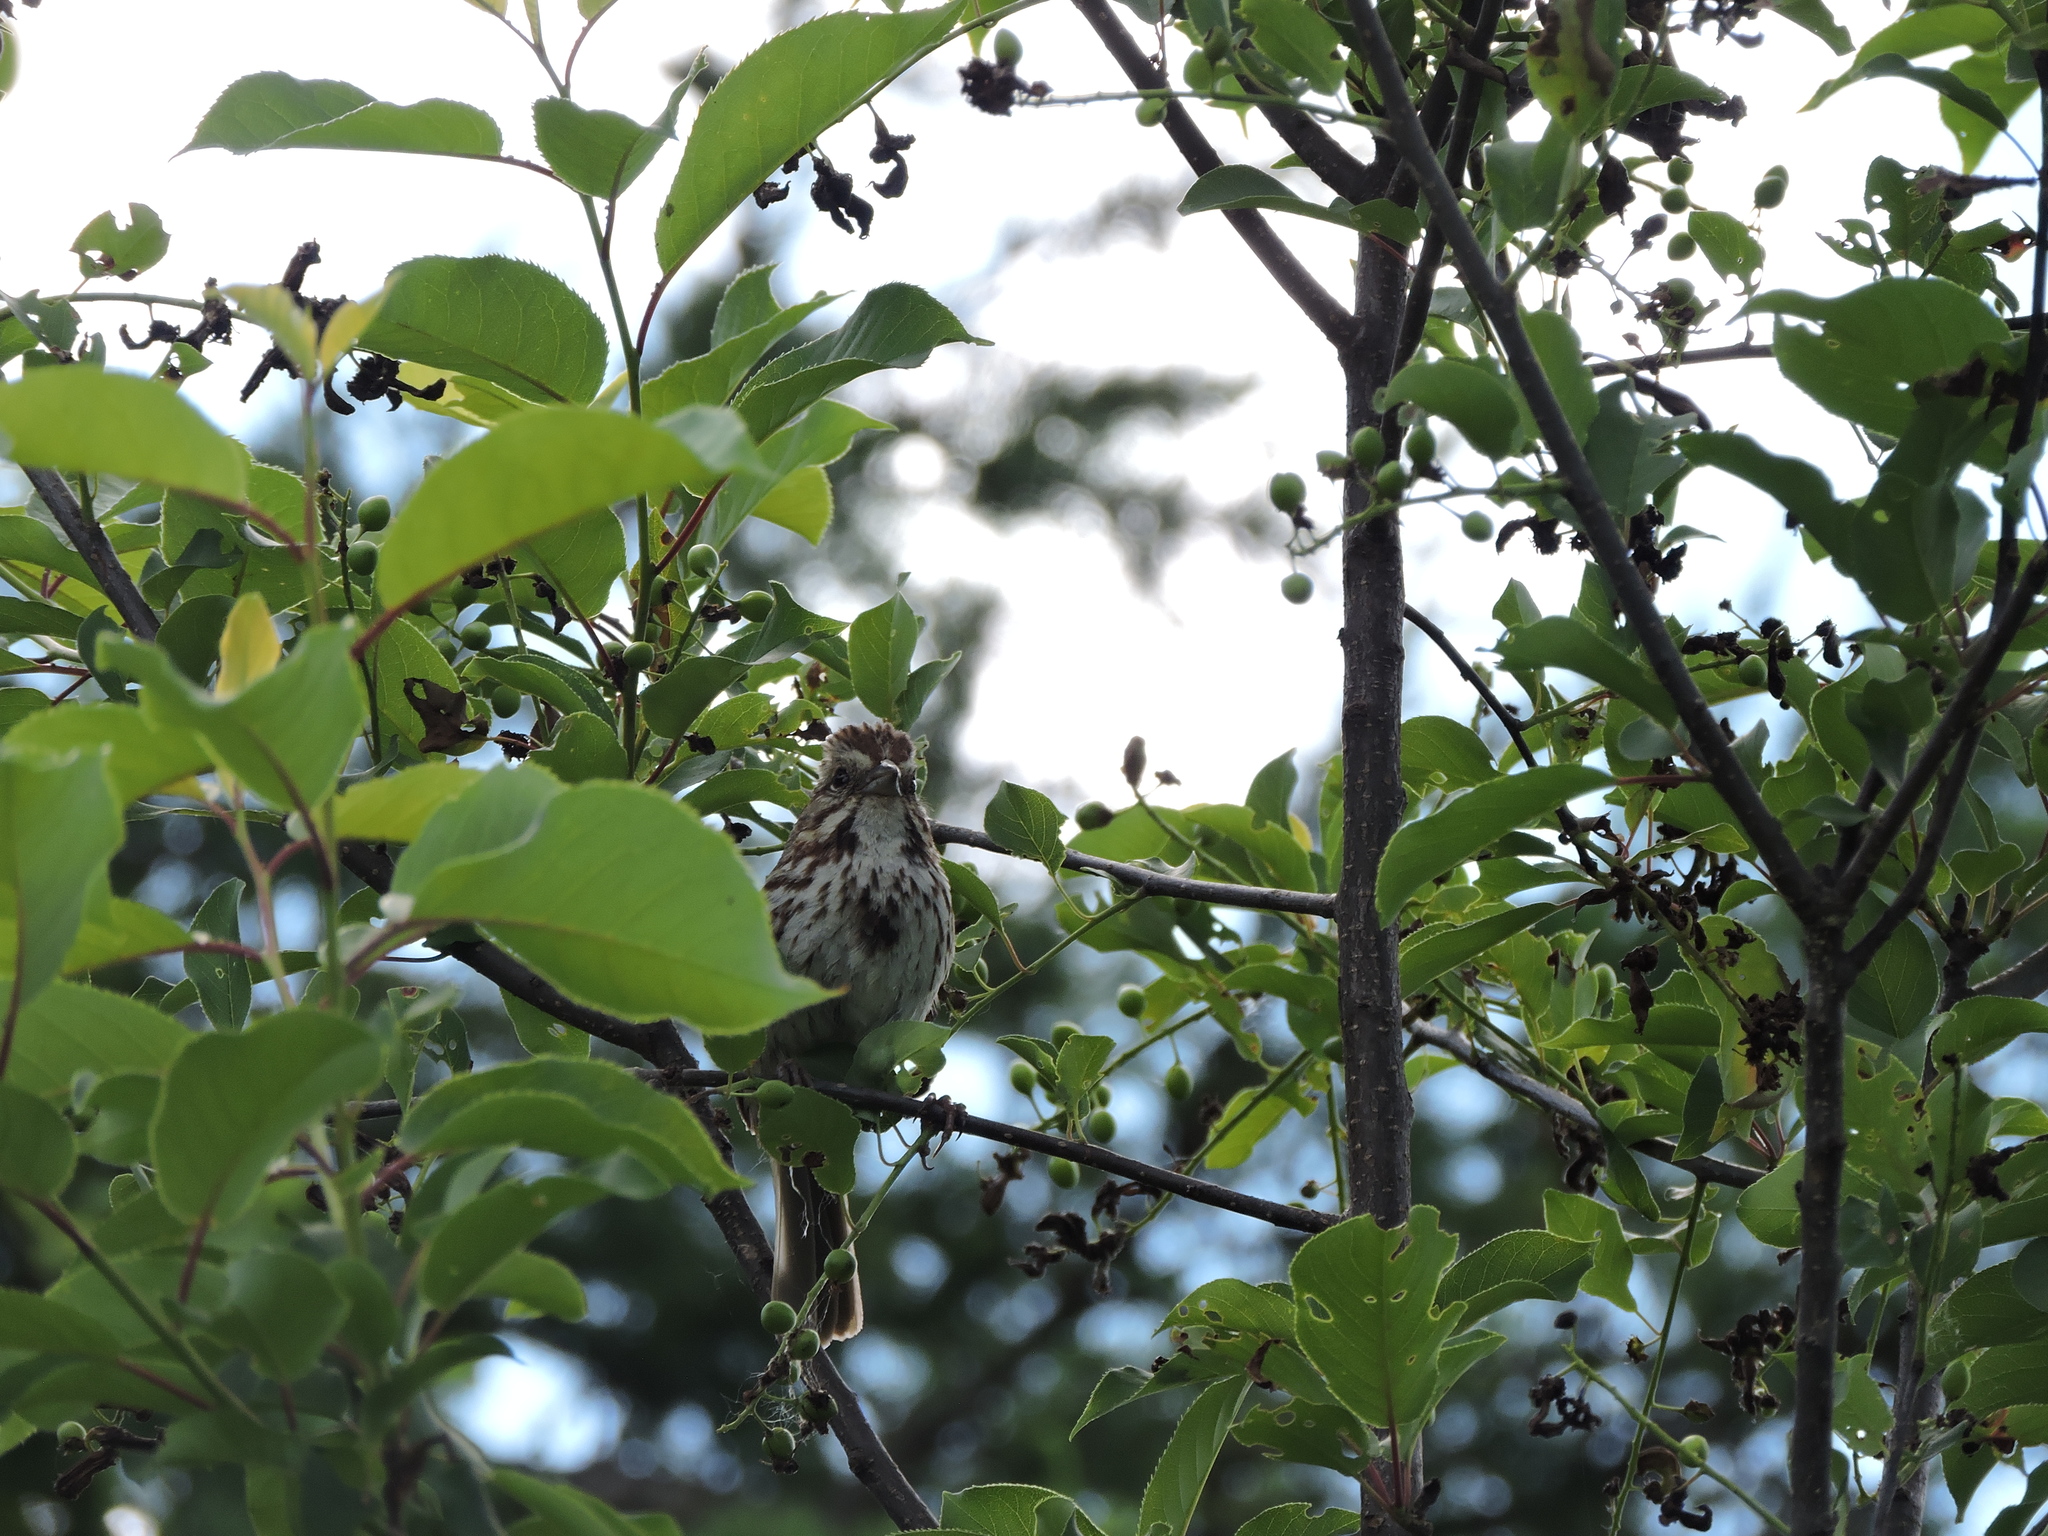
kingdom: Animalia
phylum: Chordata
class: Aves
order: Passeriformes
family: Passerellidae
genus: Melospiza
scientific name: Melospiza melodia
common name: Song sparrow
